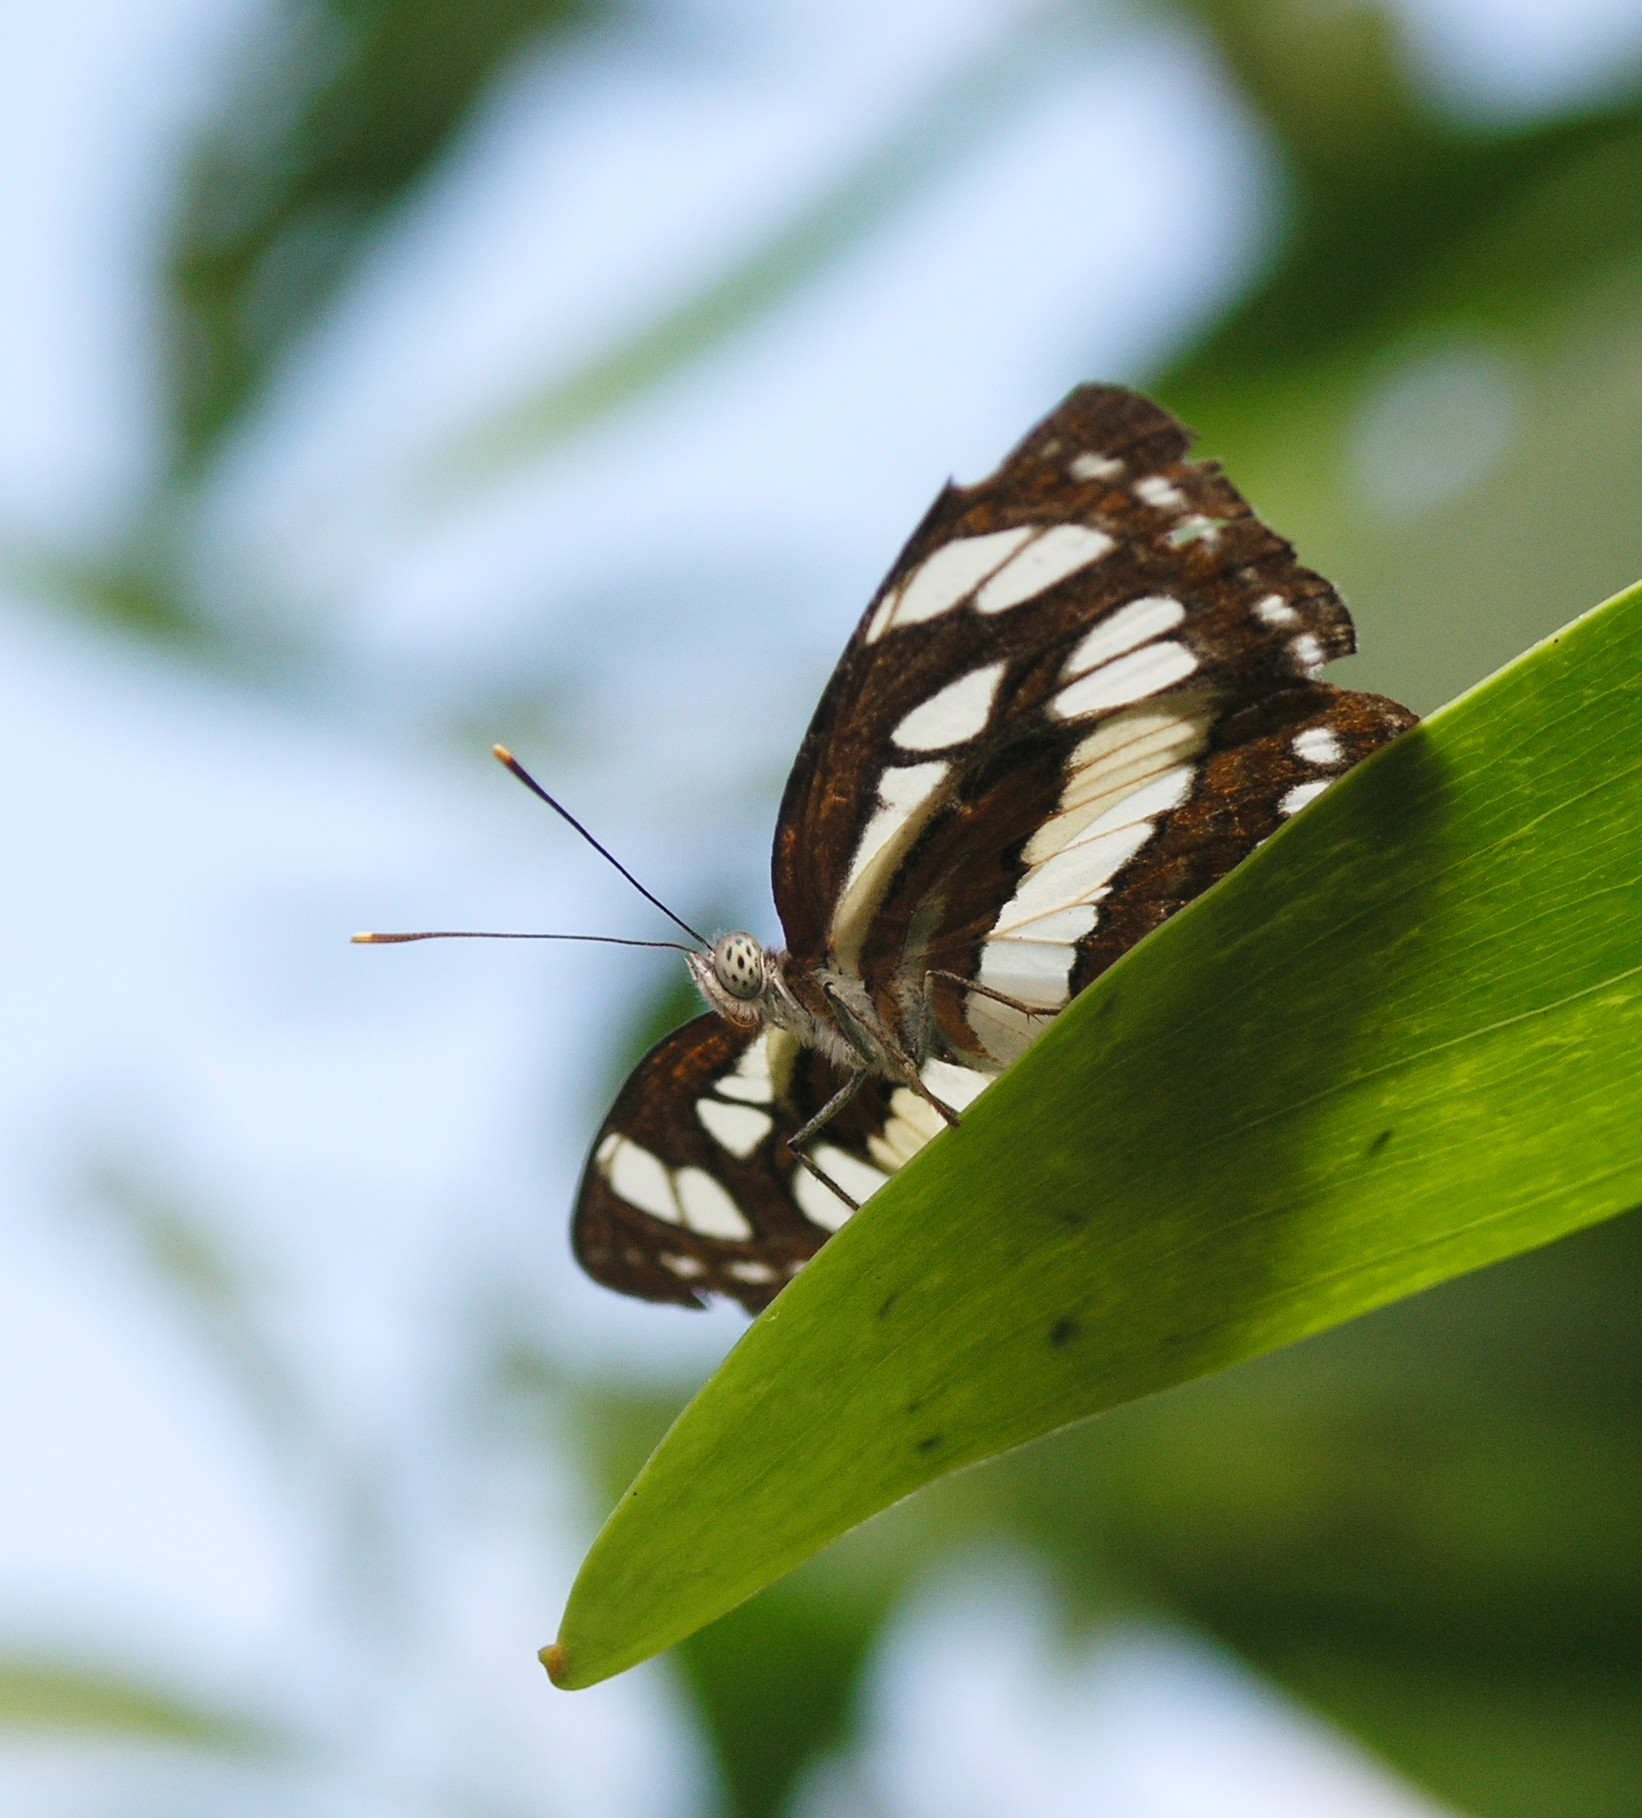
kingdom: Animalia
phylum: Arthropoda
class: Insecta
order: Lepidoptera
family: Nymphalidae
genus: Neptis
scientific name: Neptis hylas
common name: Common sailer
